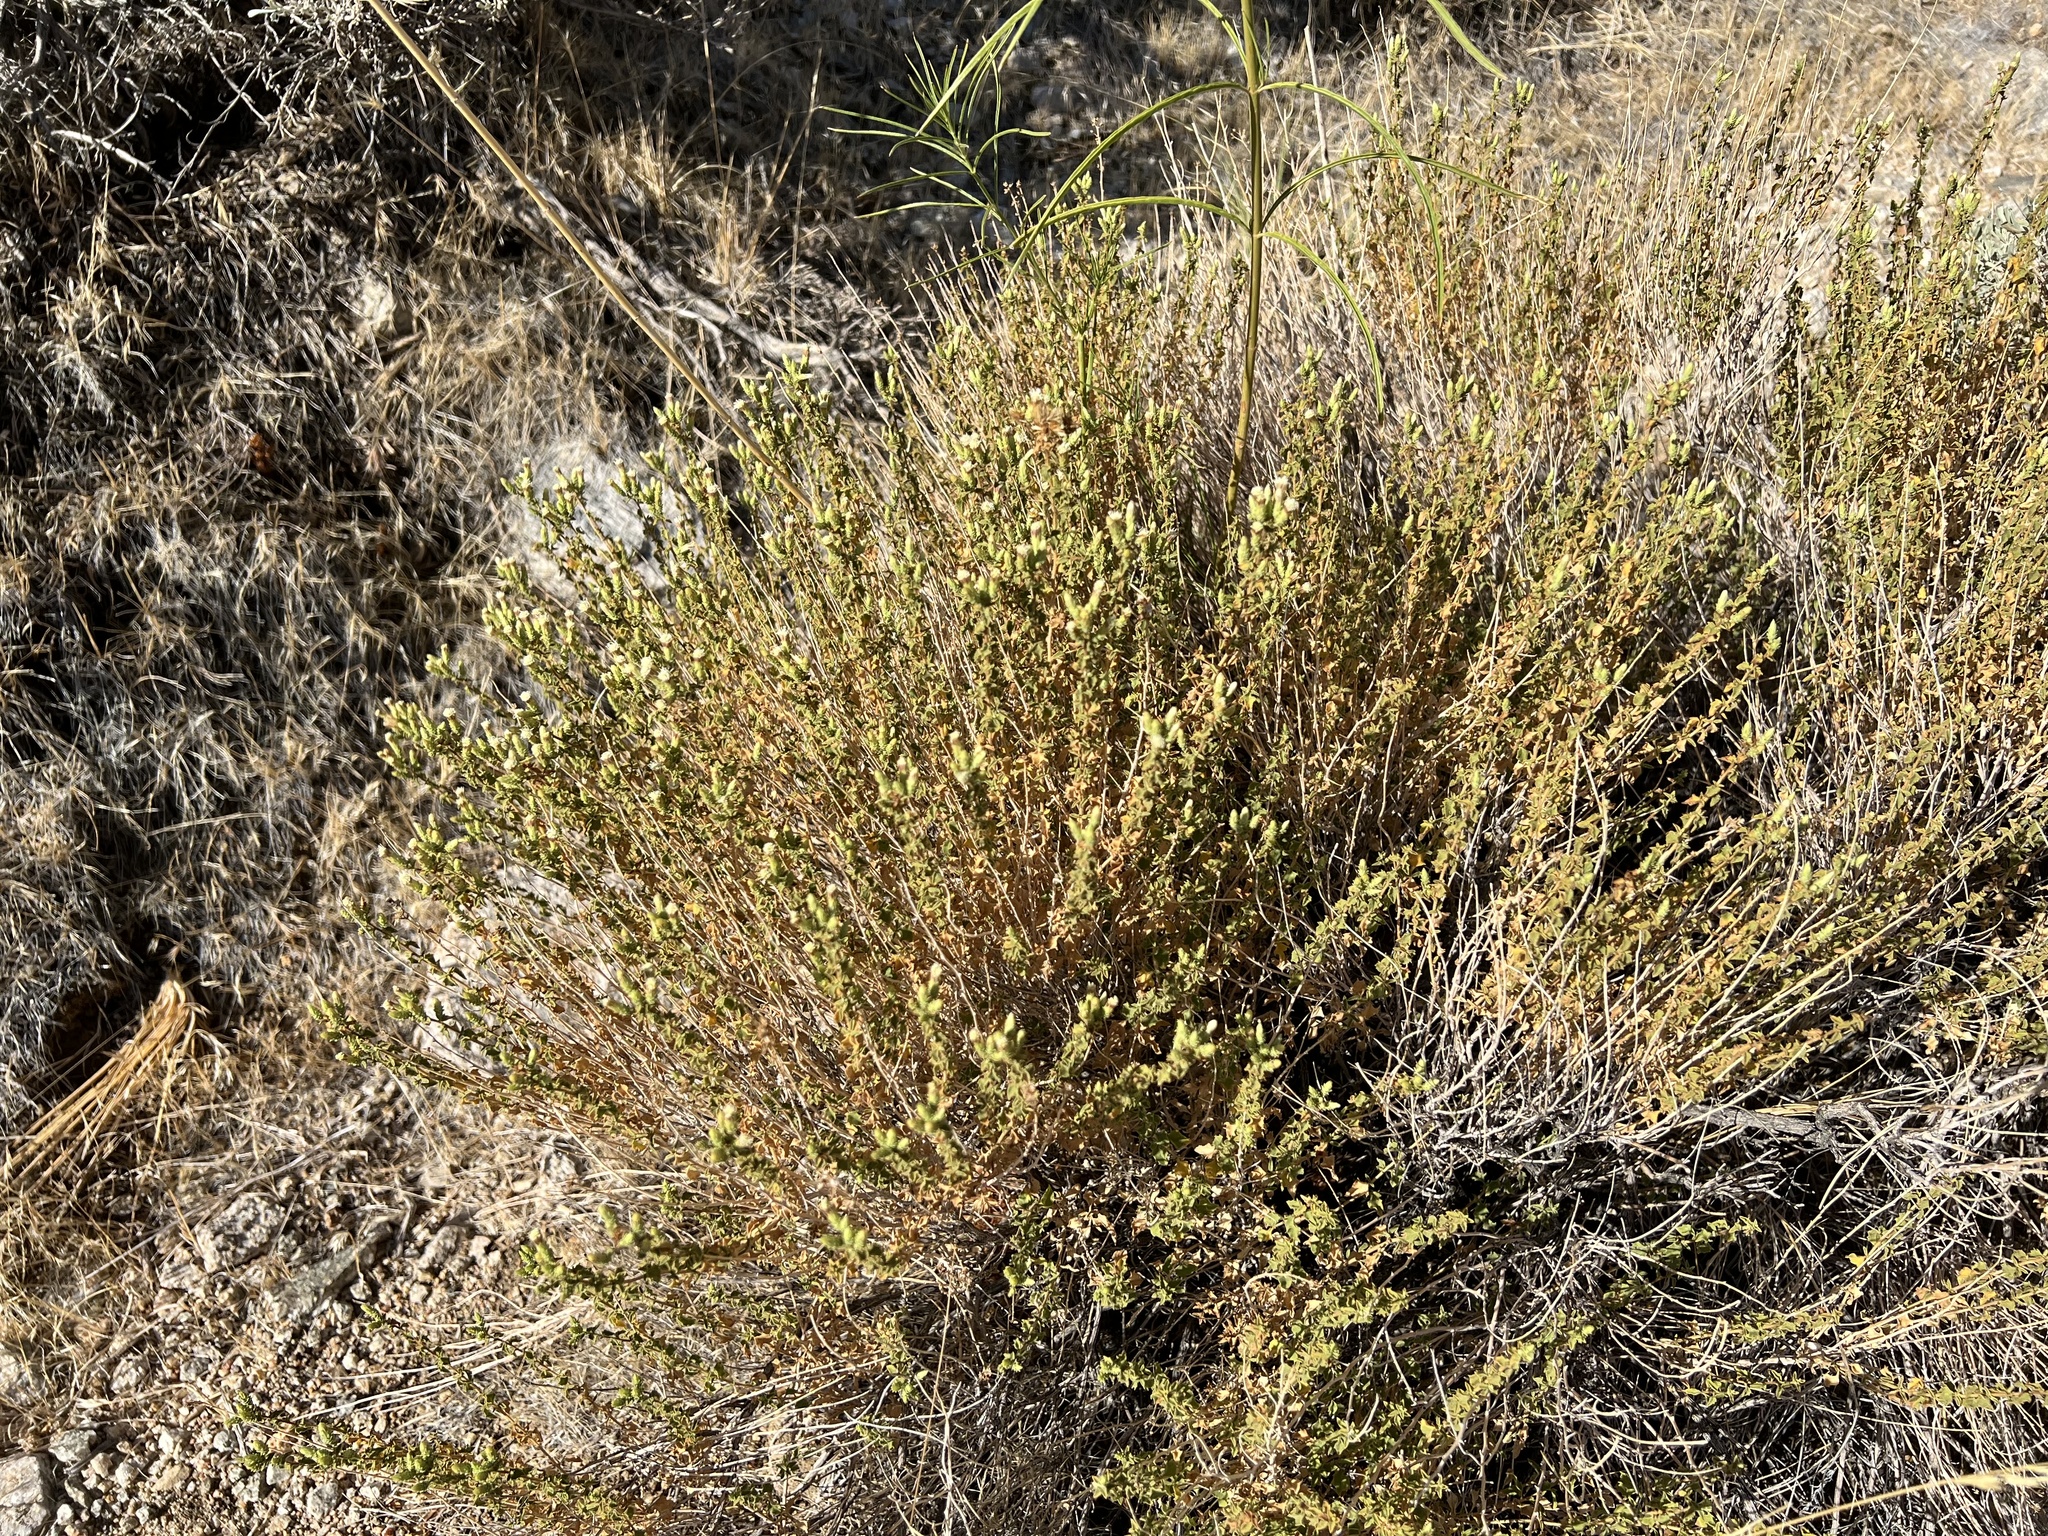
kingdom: Plantae
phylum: Tracheophyta
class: Magnoliopsida
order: Asterales
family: Asteraceae
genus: Brickellia
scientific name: Brickellia microphylla
